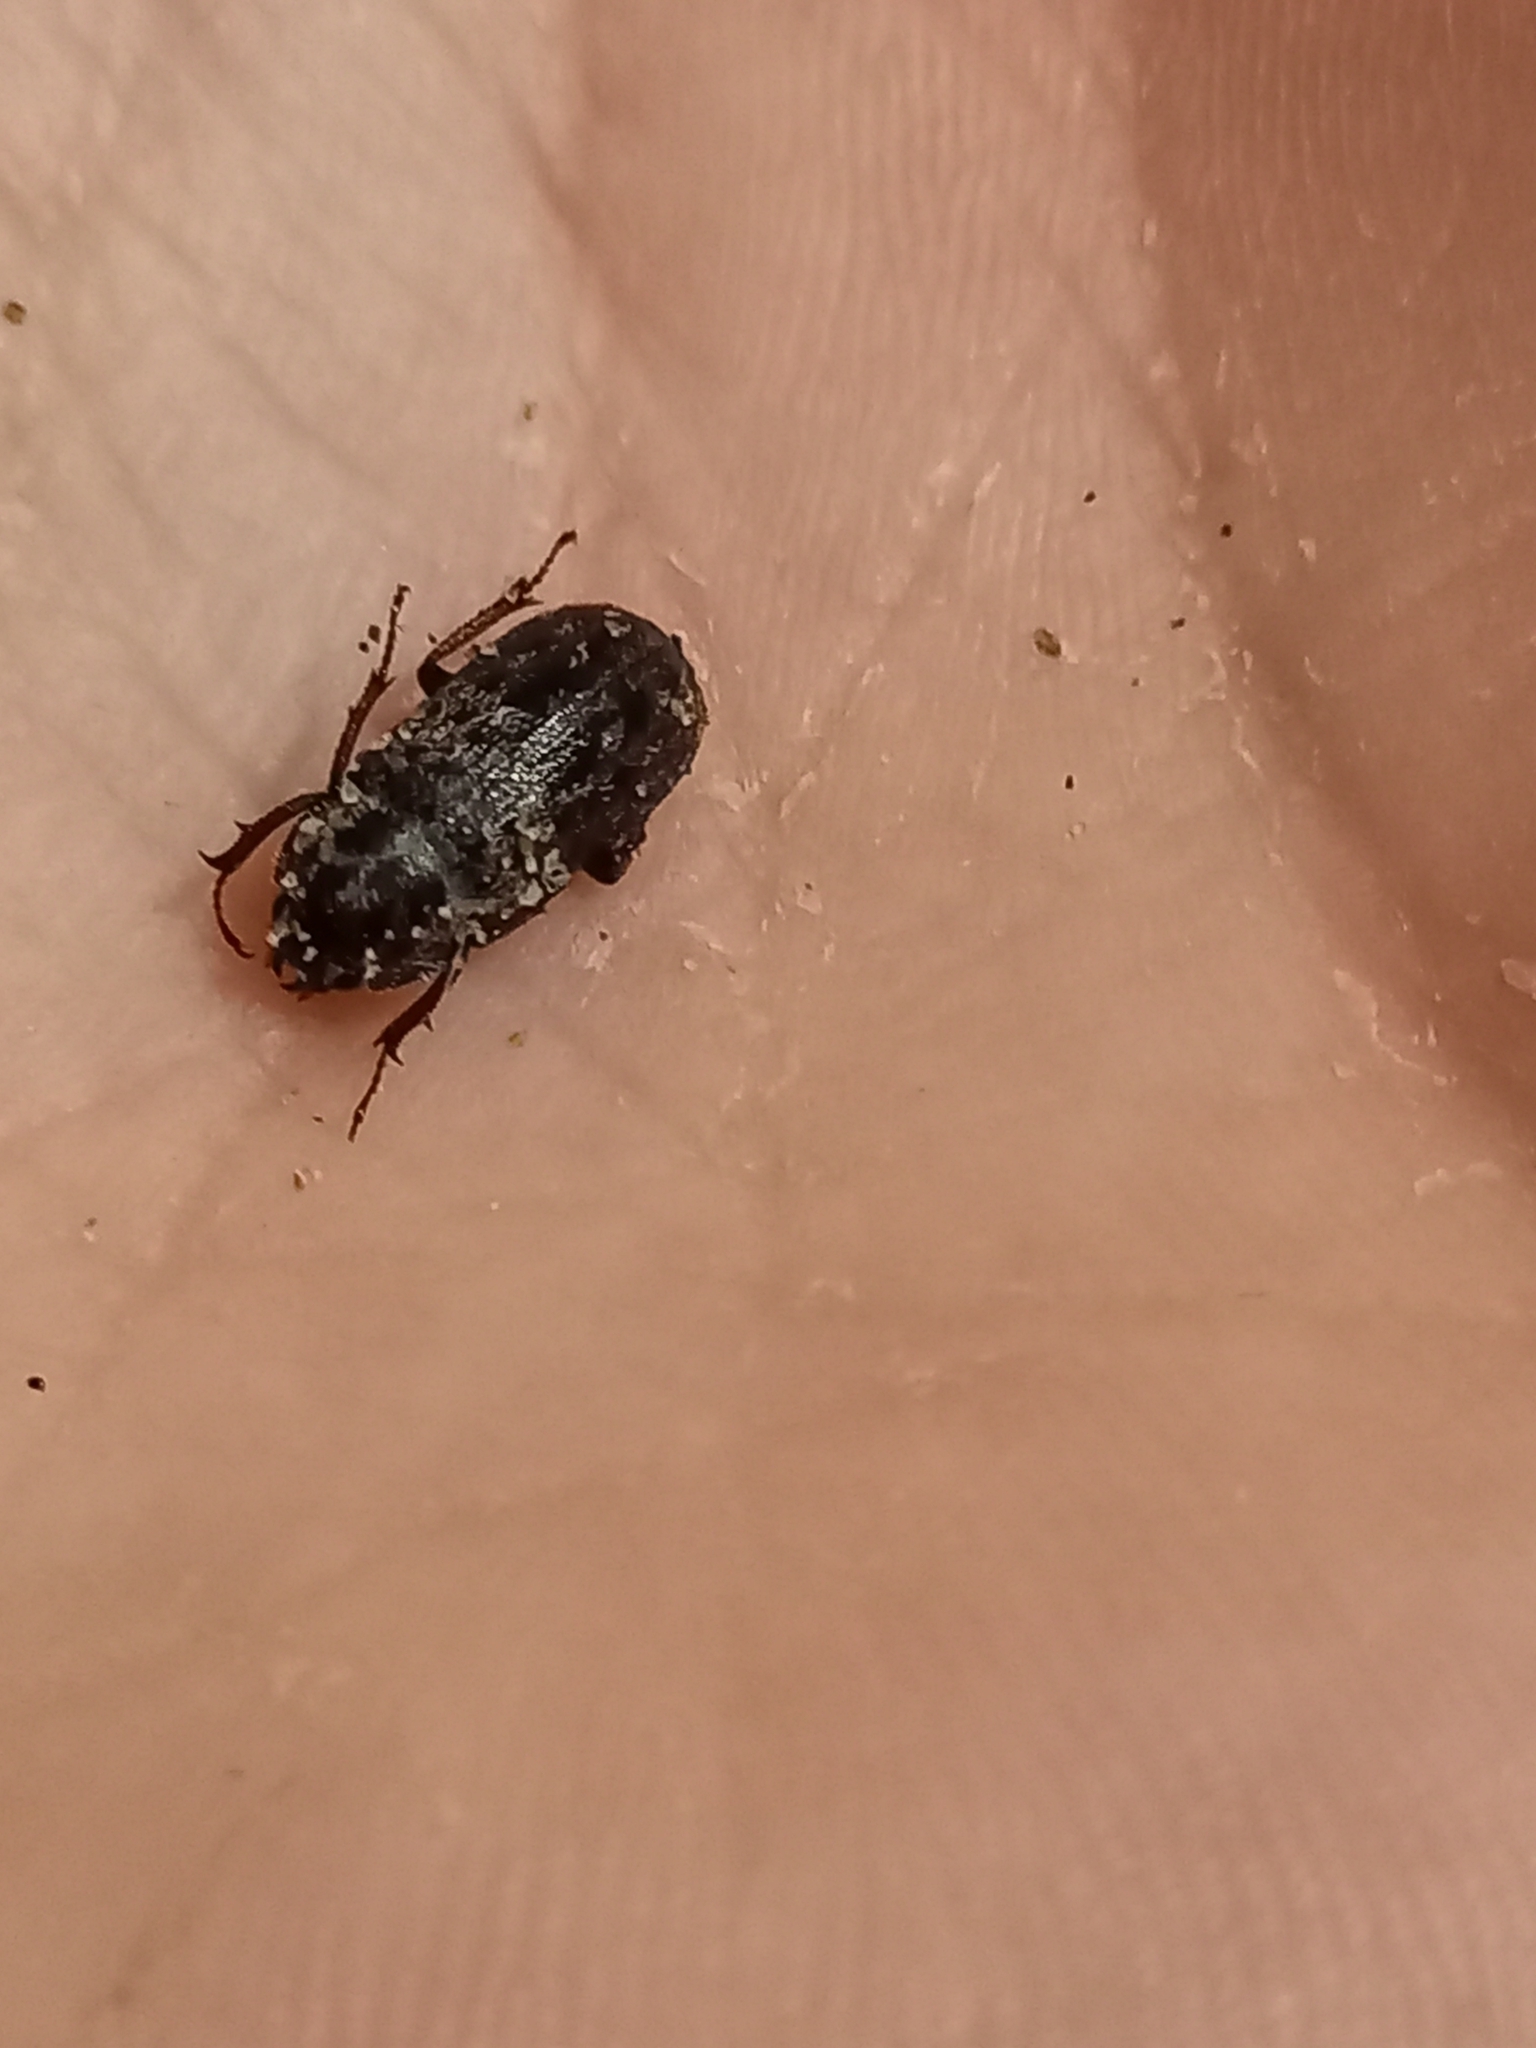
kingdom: Animalia
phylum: Arthropoda
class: Insecta
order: Coleoptera
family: Lucanidae
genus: Mitophyllus
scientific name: Mitophyllus irroratus
